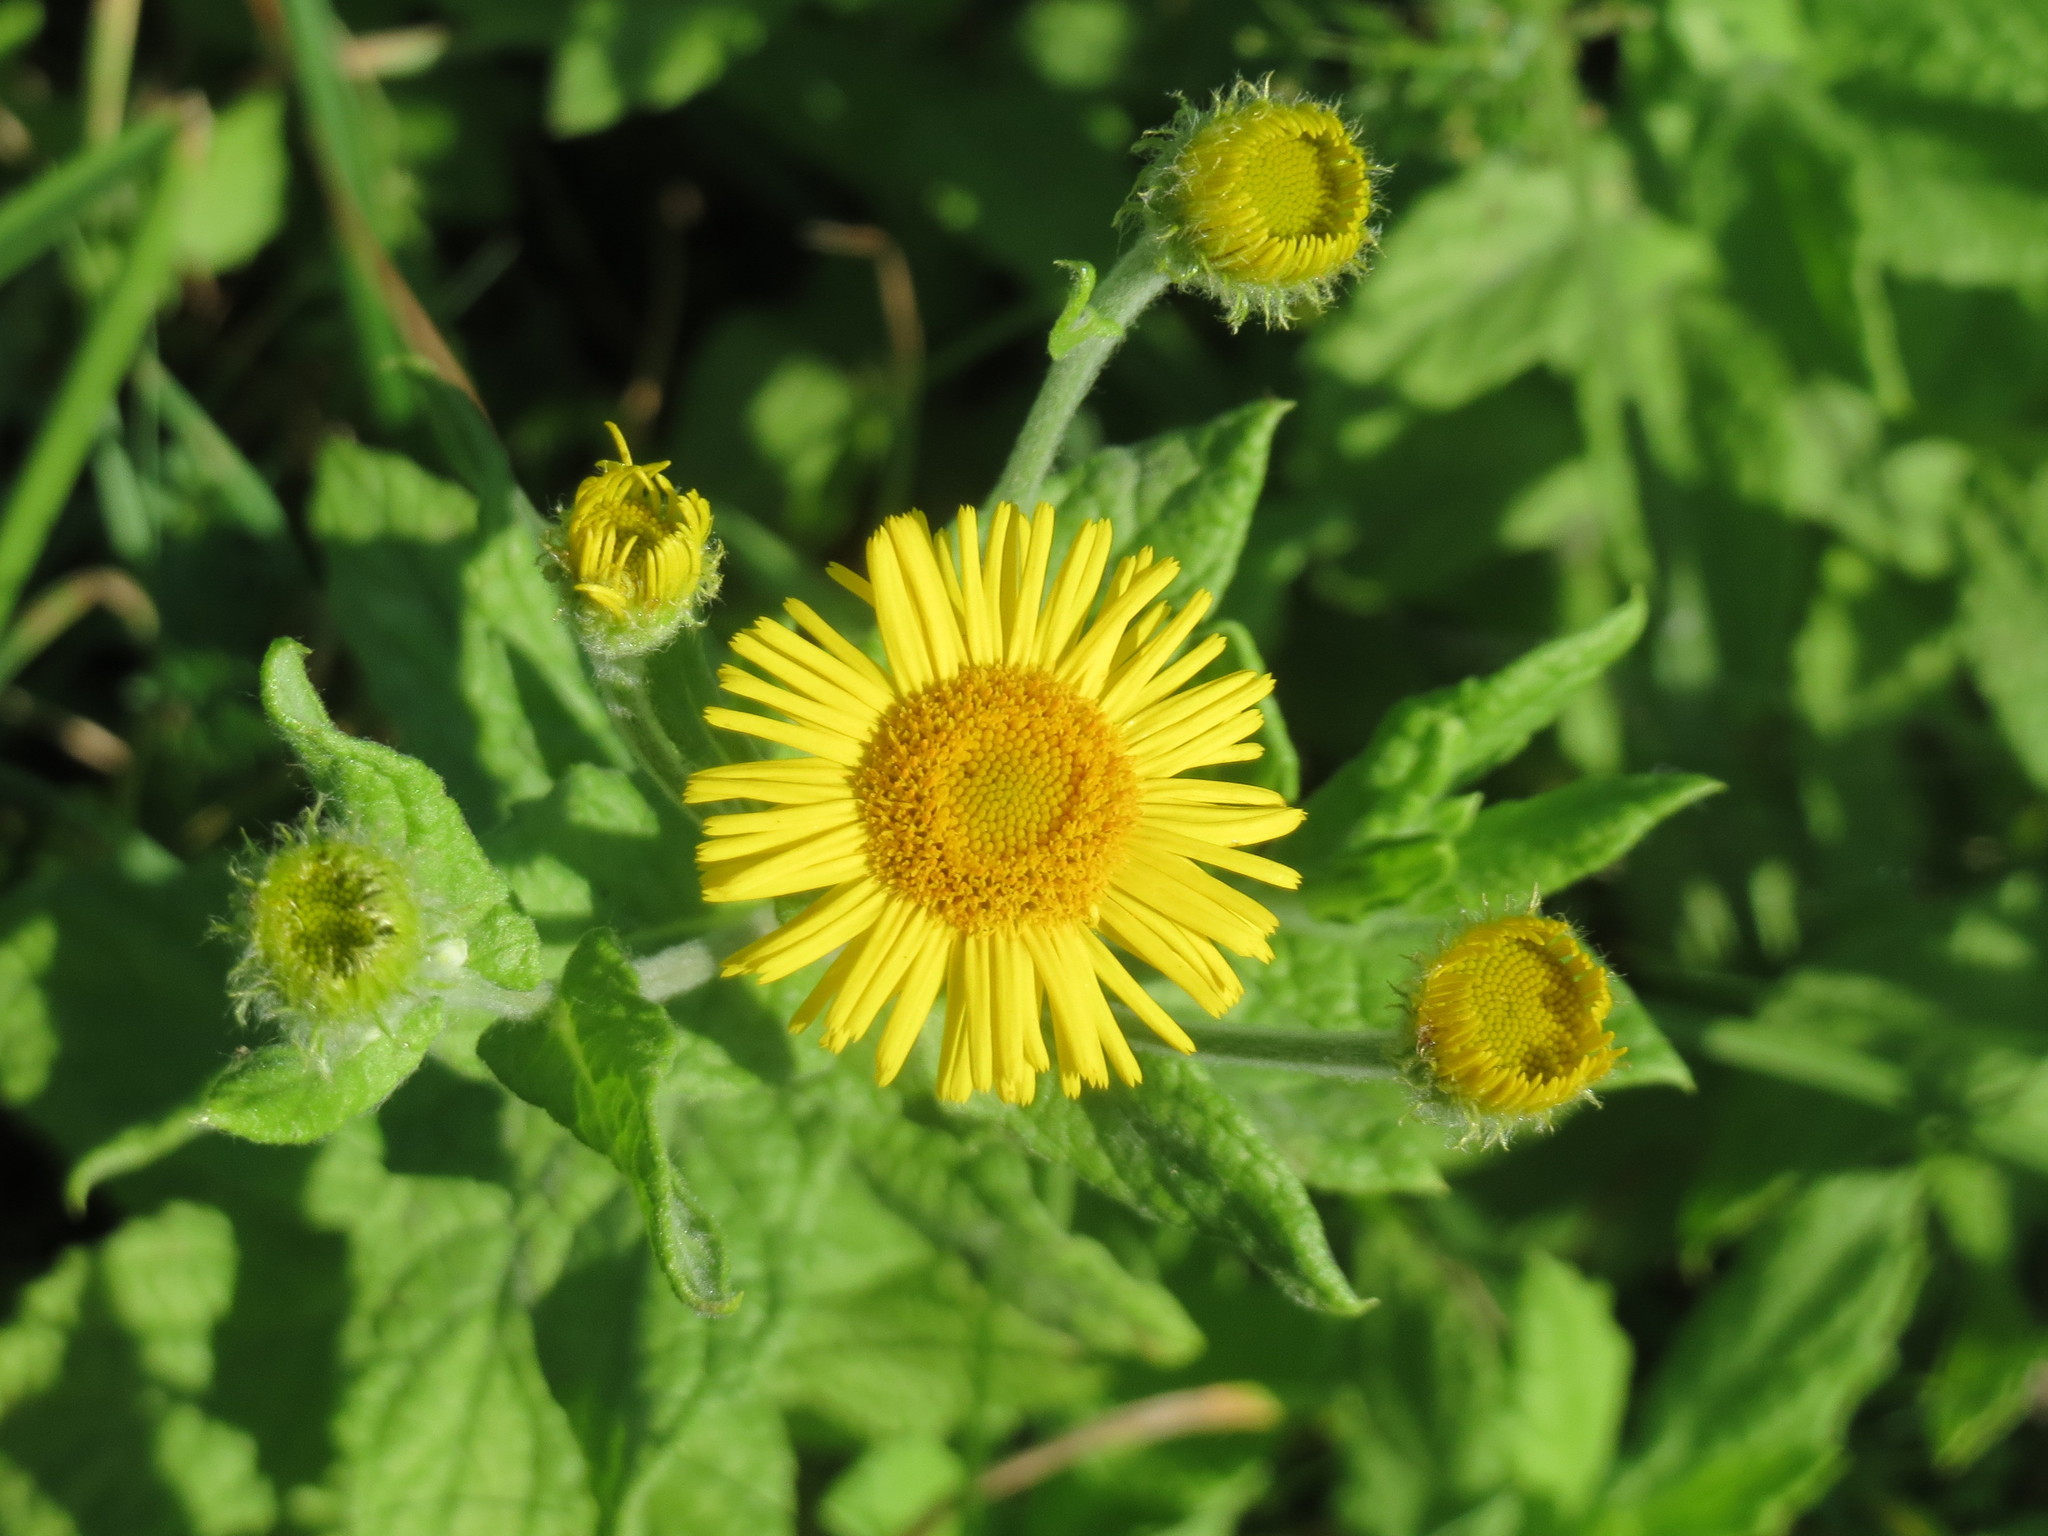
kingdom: Plantae
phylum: Tracheophyta
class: Magnoliopsida
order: Asterales
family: Asteraceae
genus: Pulicaria
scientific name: Pulicaria dysenterica
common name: Common fleabane
